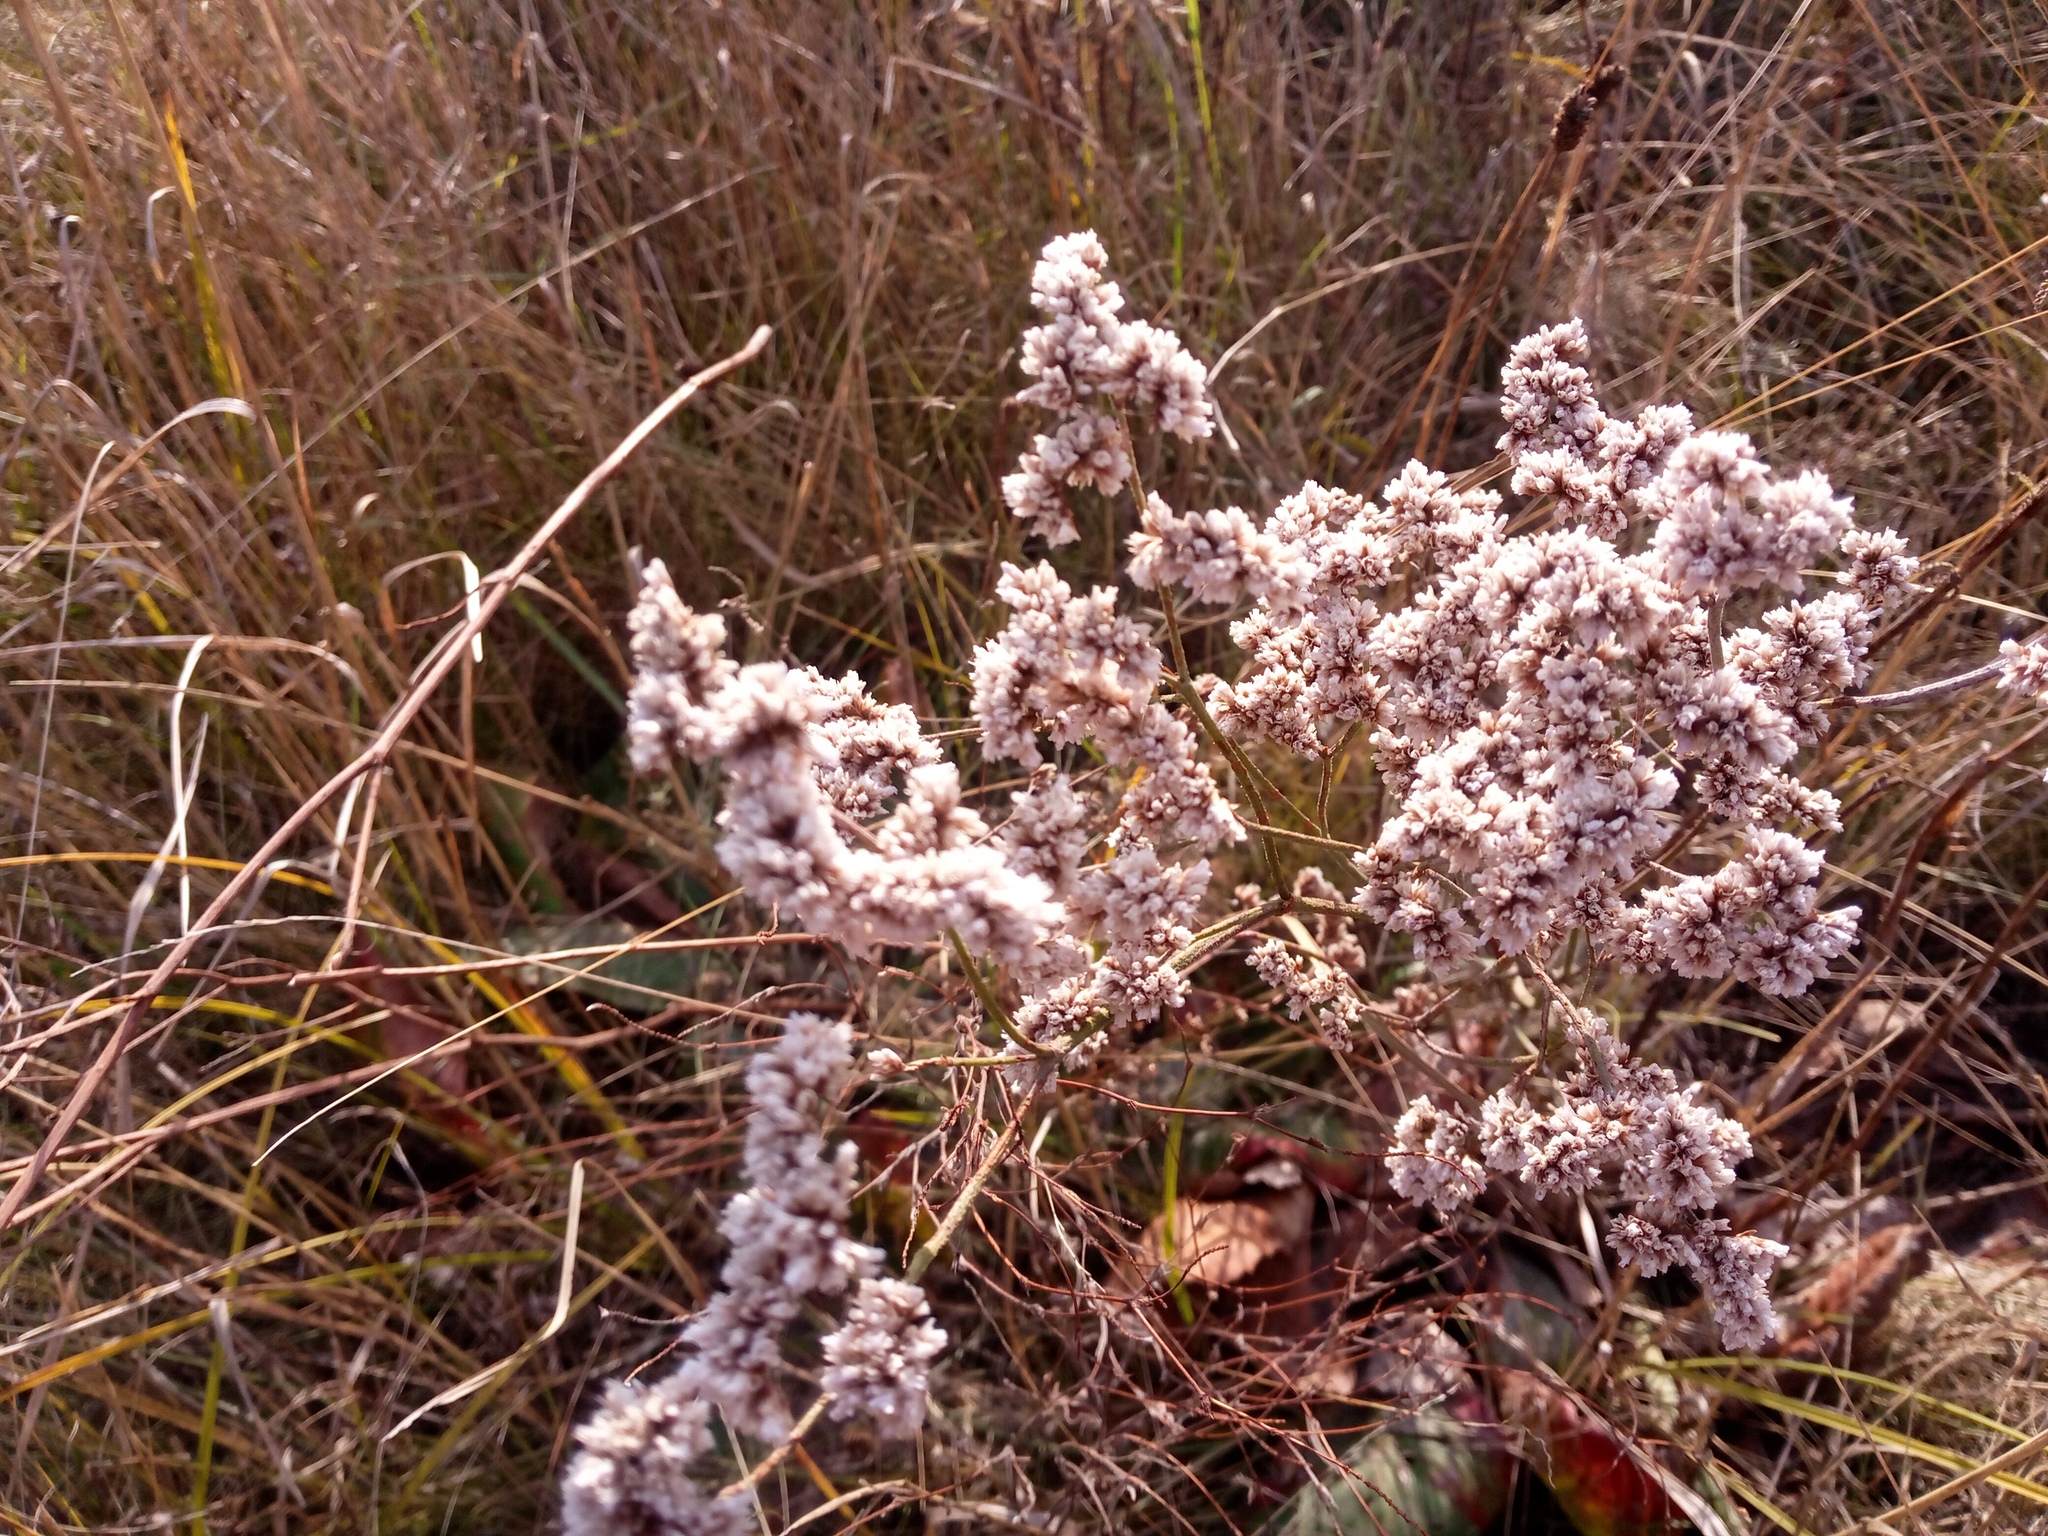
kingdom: Plantae
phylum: Tracheophyta
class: Magnoliopsida
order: Caryophyllales
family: Plumbaginaceae
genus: Limonium
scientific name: Limonium alutaceum
